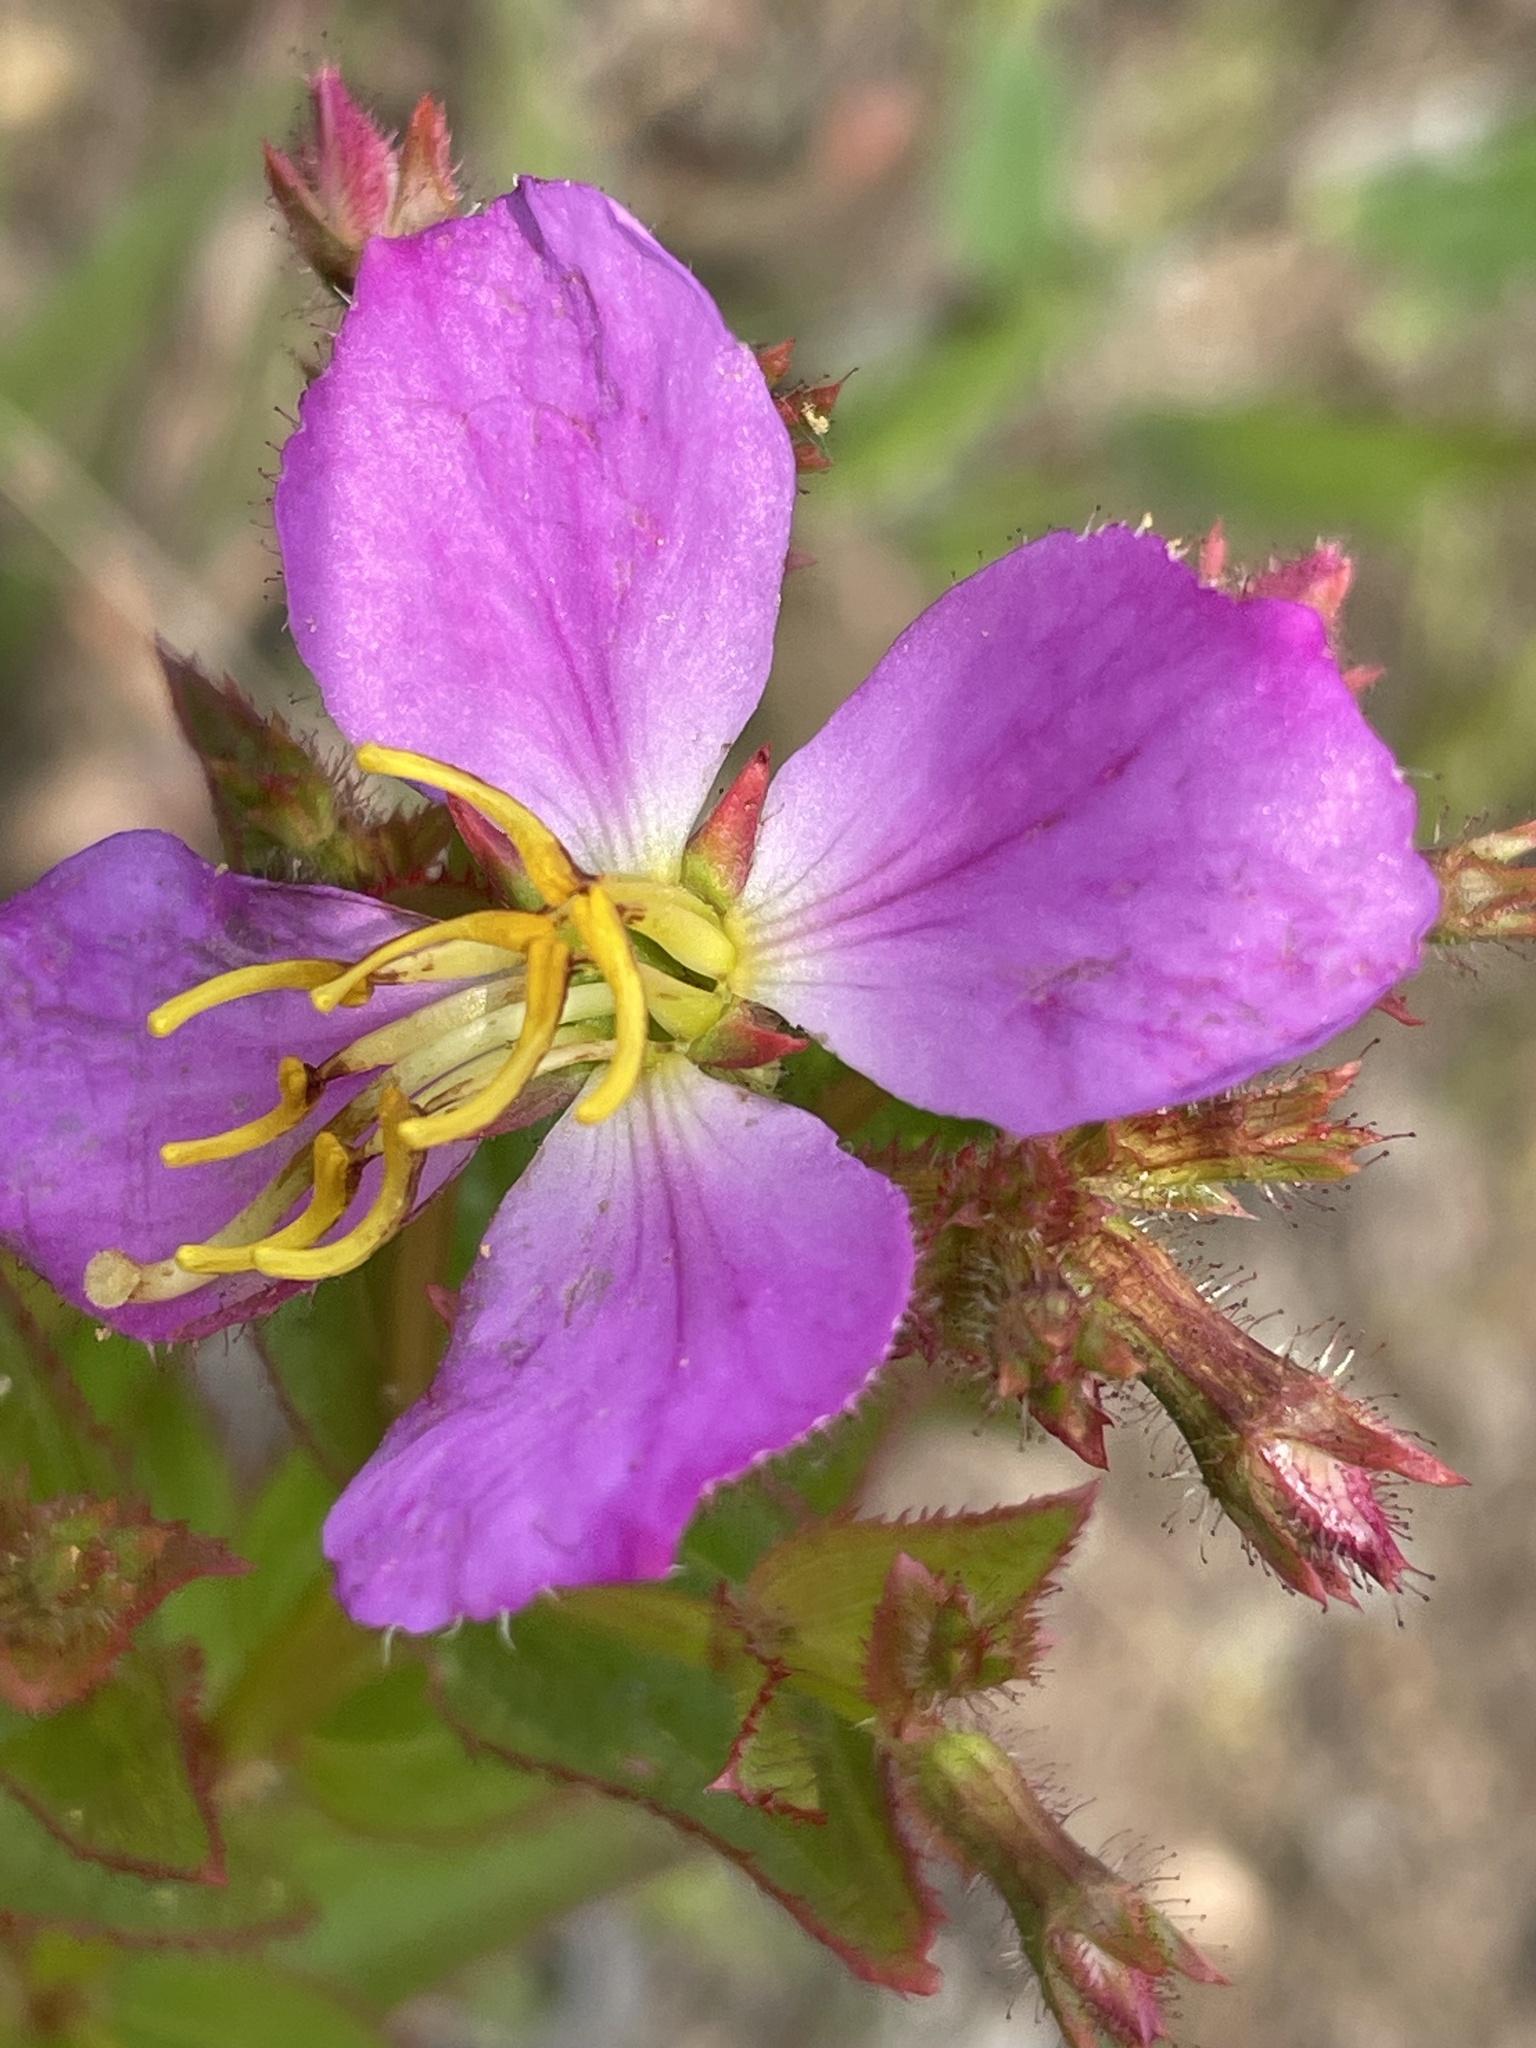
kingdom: Plantae
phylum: Tracheophyta
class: Magnoliopsida
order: Myrtales
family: Melastomataceae
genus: Rhexia
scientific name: Rhexia virginica
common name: Common meadow beauty
